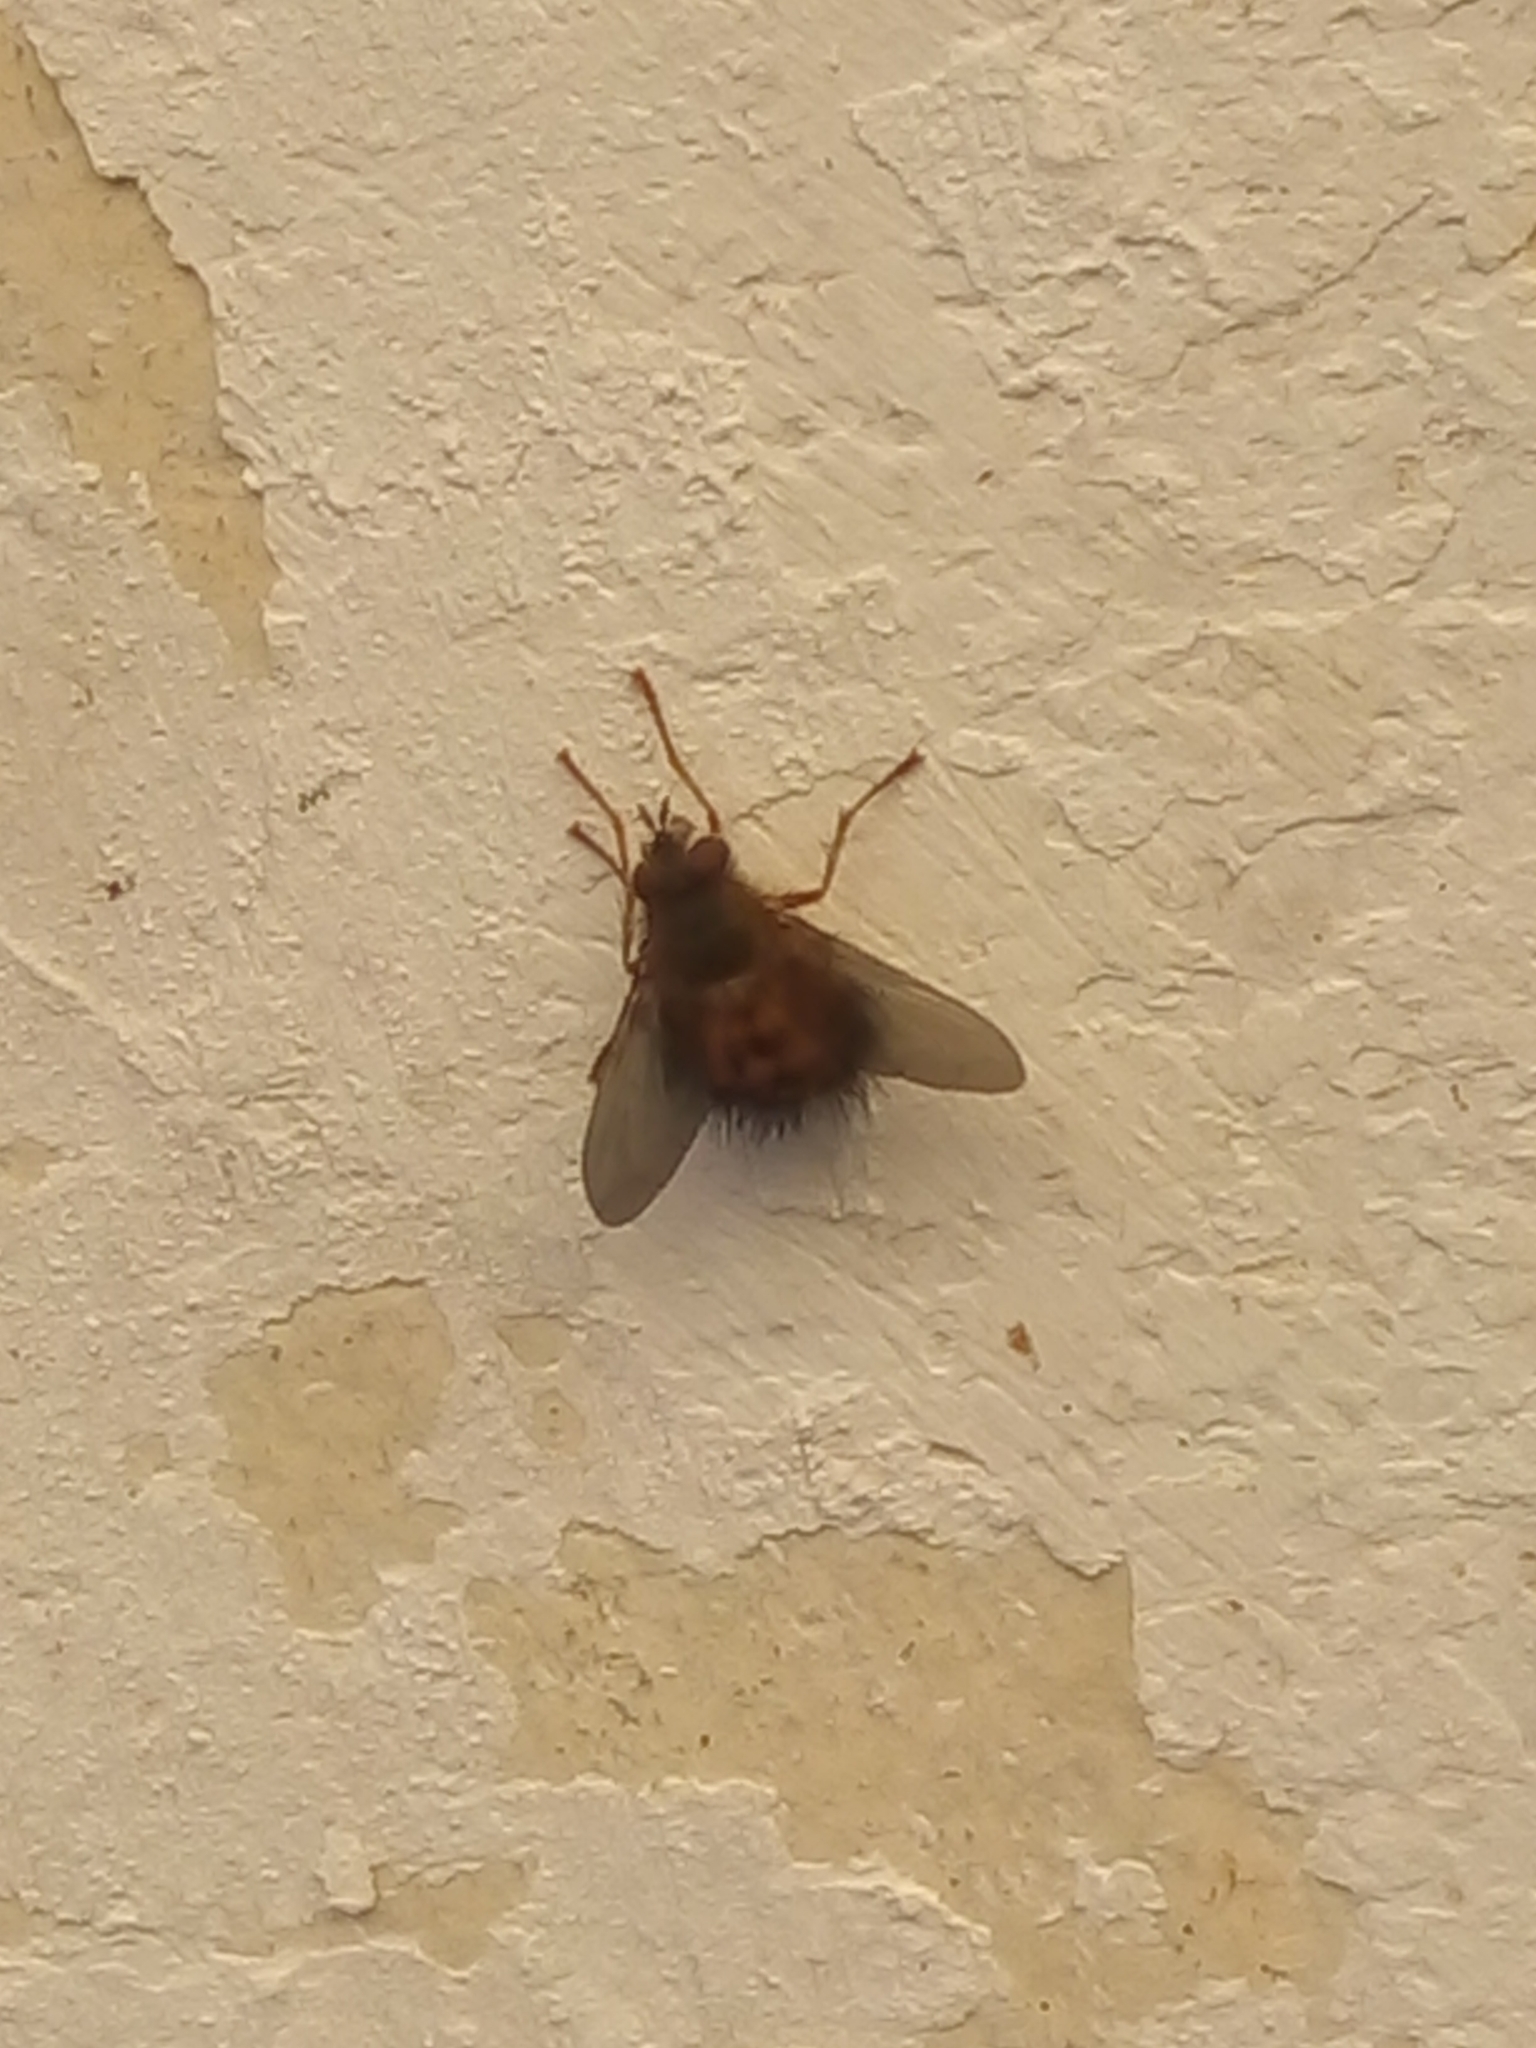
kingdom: Animalia
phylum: Arthropoda
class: Insecta
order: Diptera
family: Tachinidae
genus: Hystricia
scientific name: Hystricia abrupta
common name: Tomato bristle fly
